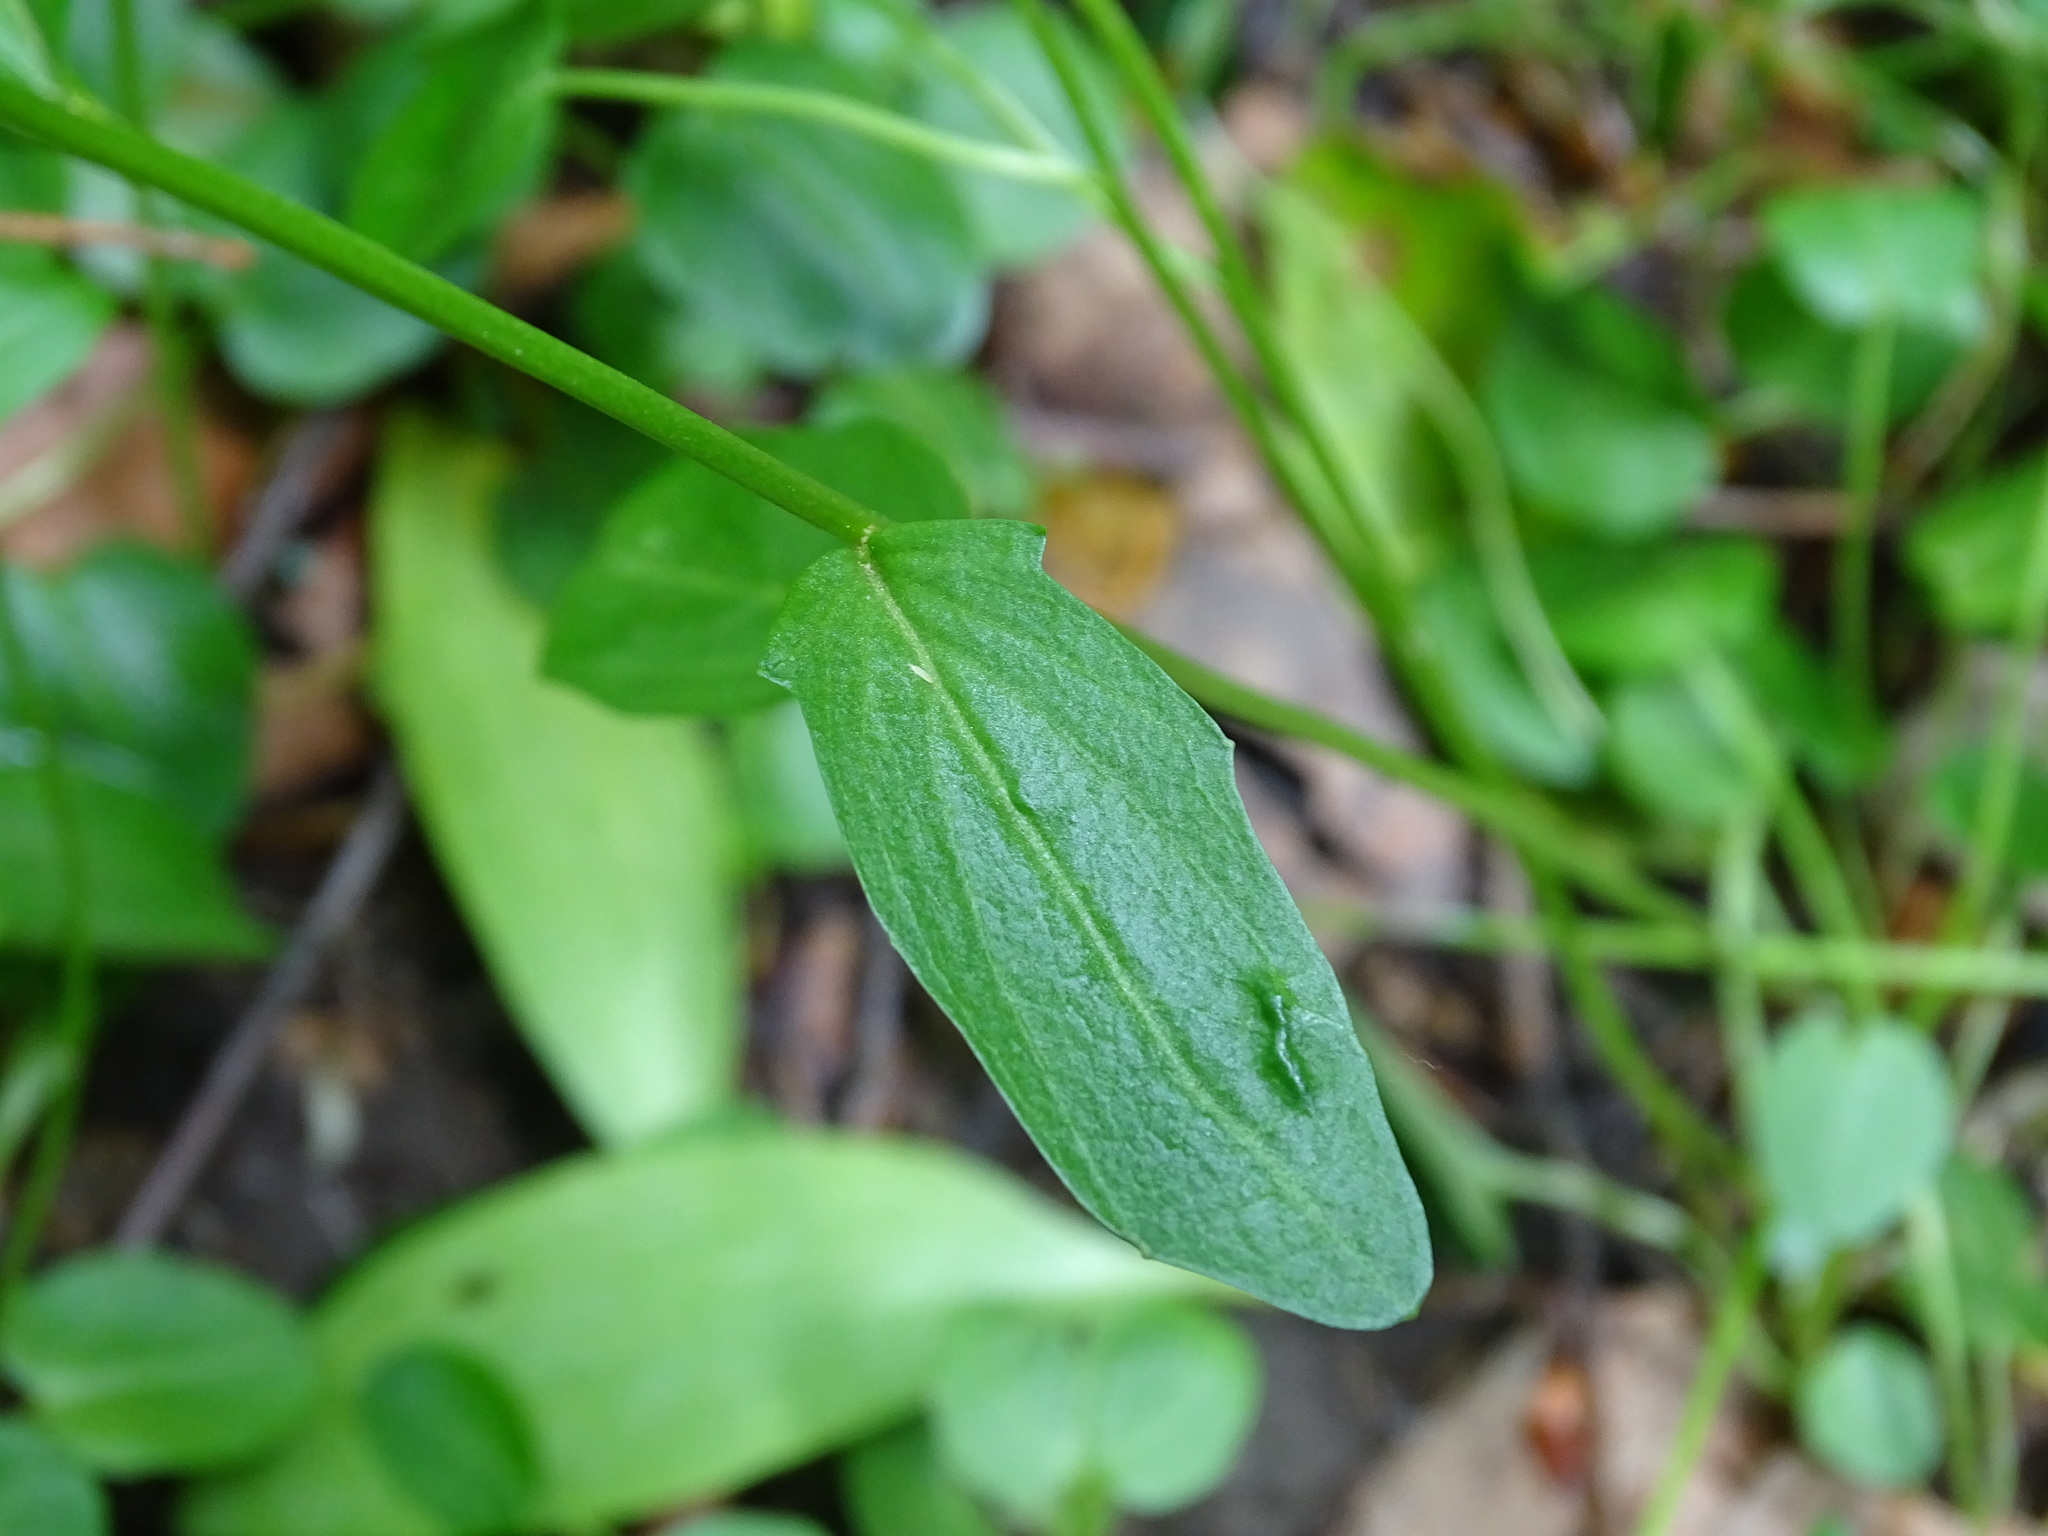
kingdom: Plantae
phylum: Tracheophyta
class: Magnoliopsida
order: Brassicales
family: Brassicaceae
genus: Cardamine
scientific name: Cardamine bulbosa
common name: Spring cress
